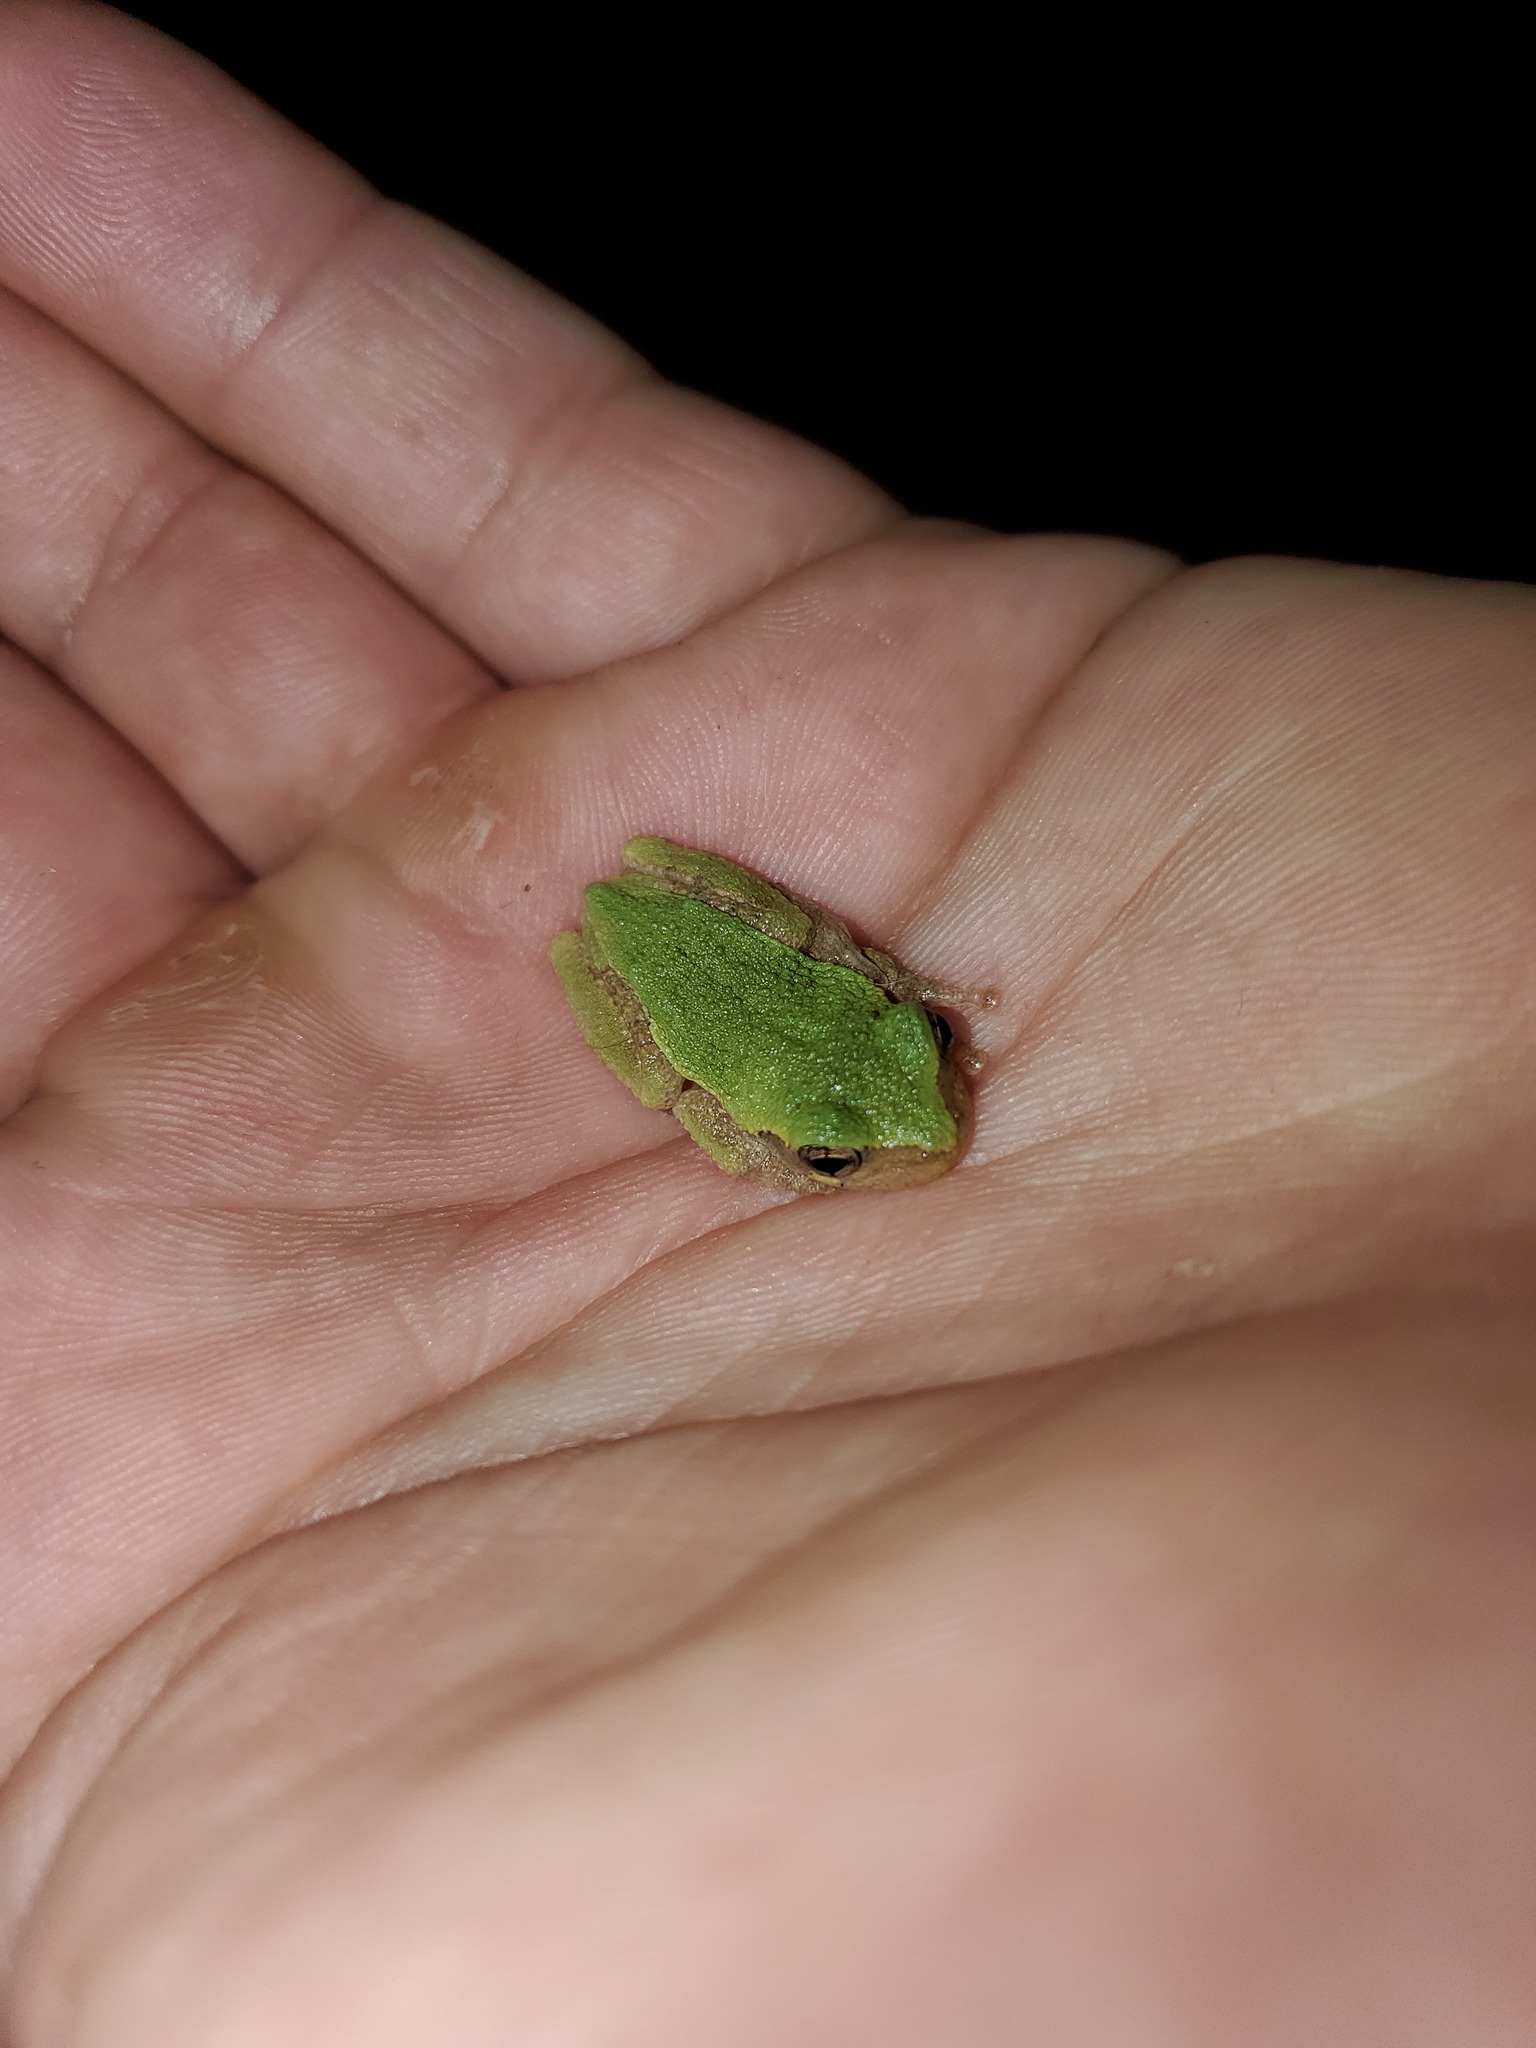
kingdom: Animalia
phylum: Chordata
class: Amphibia
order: Anura
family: Hylidae
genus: Dryophytes
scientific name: Dryophytes chrysoscelis
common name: Cope's gray treefrog
